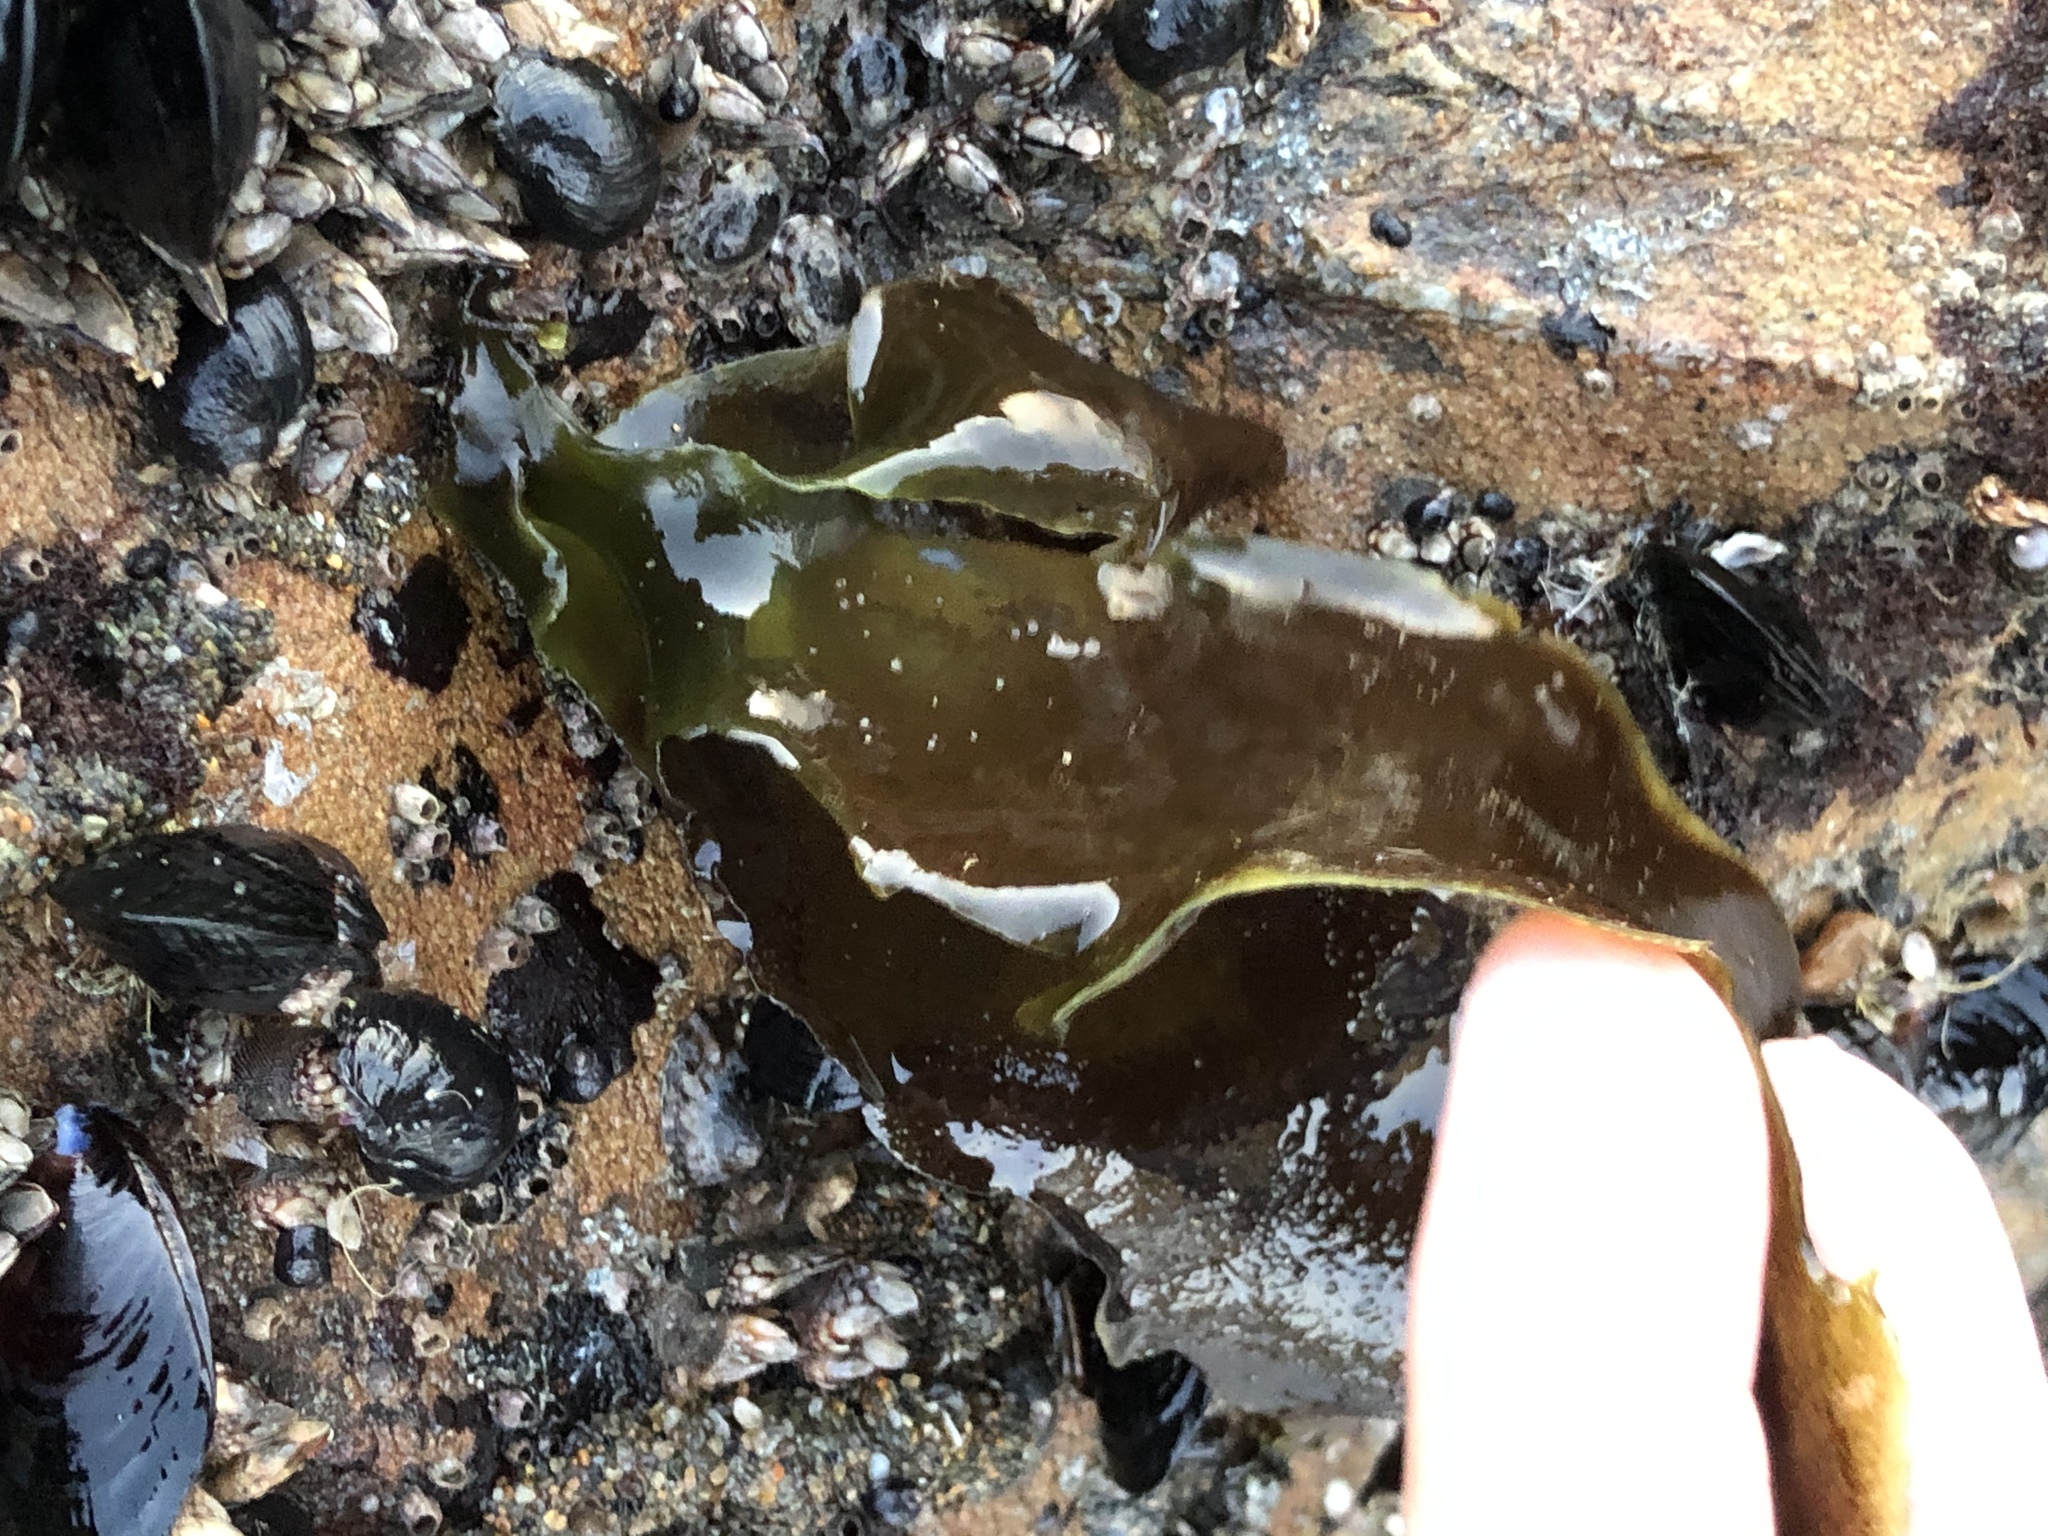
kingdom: Plantae
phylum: Rhodophyta
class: Florideophyceae
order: Gigartinales
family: Gigartinaceae
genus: Mazzaella
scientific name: Mazzaella flaccida
